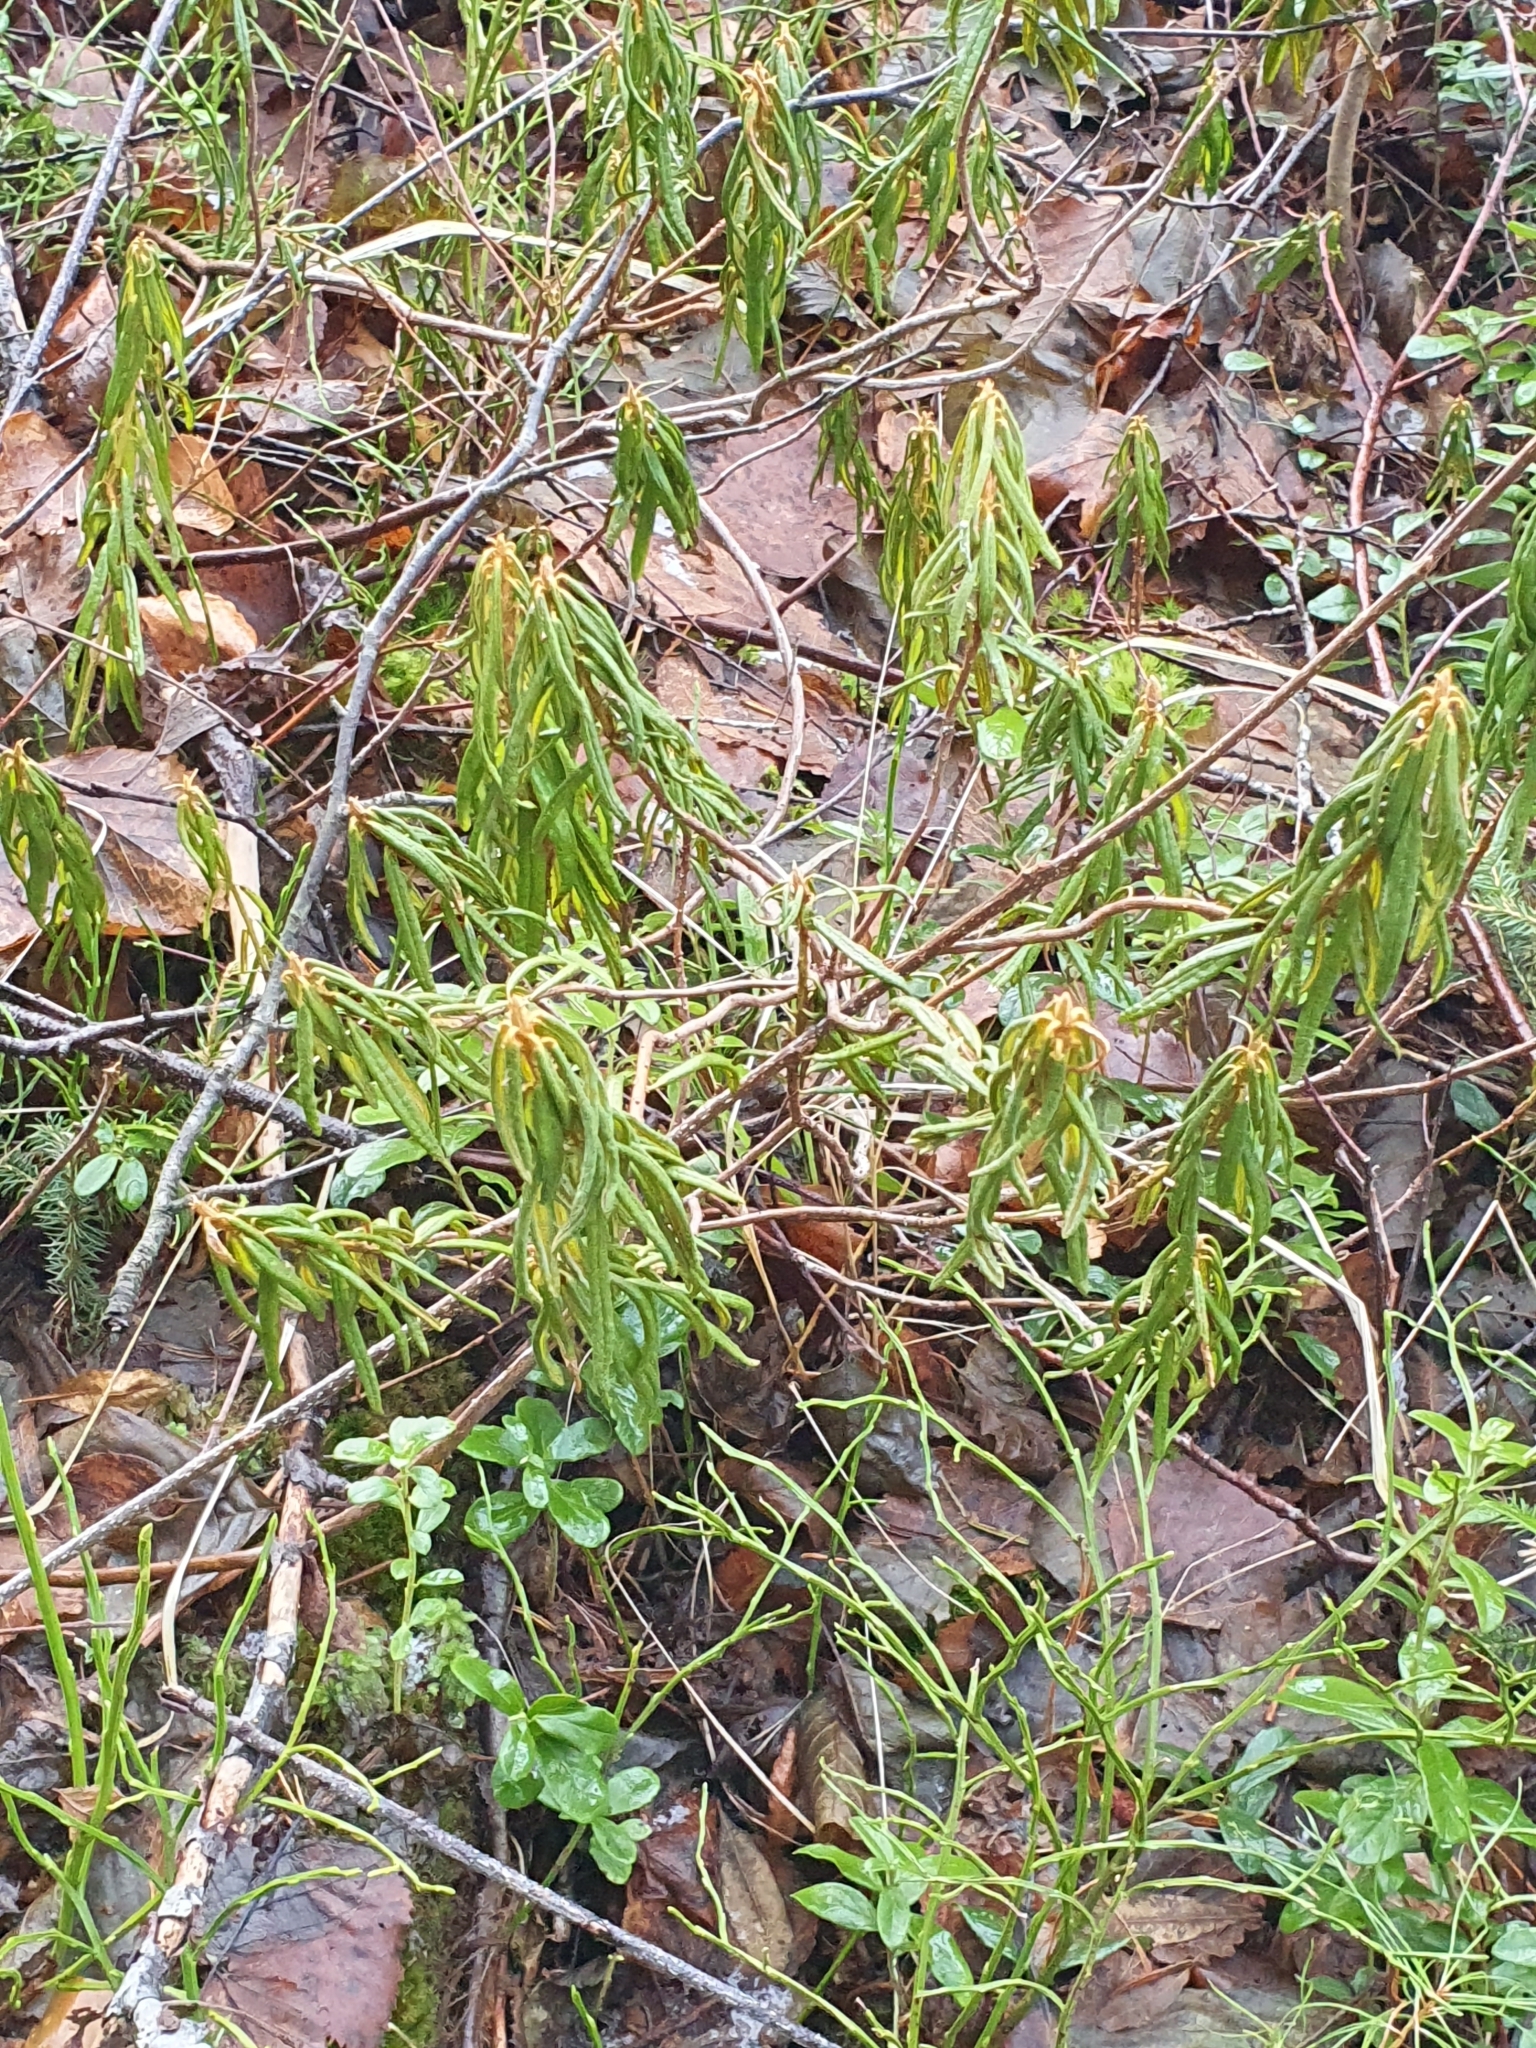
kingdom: Plantae
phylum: Tracheophyta
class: Magnoliopsida
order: Ericales
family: Ericaceae
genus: Rhododendron
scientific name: Rhododendron tomentosum
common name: Marsh labrador tea
